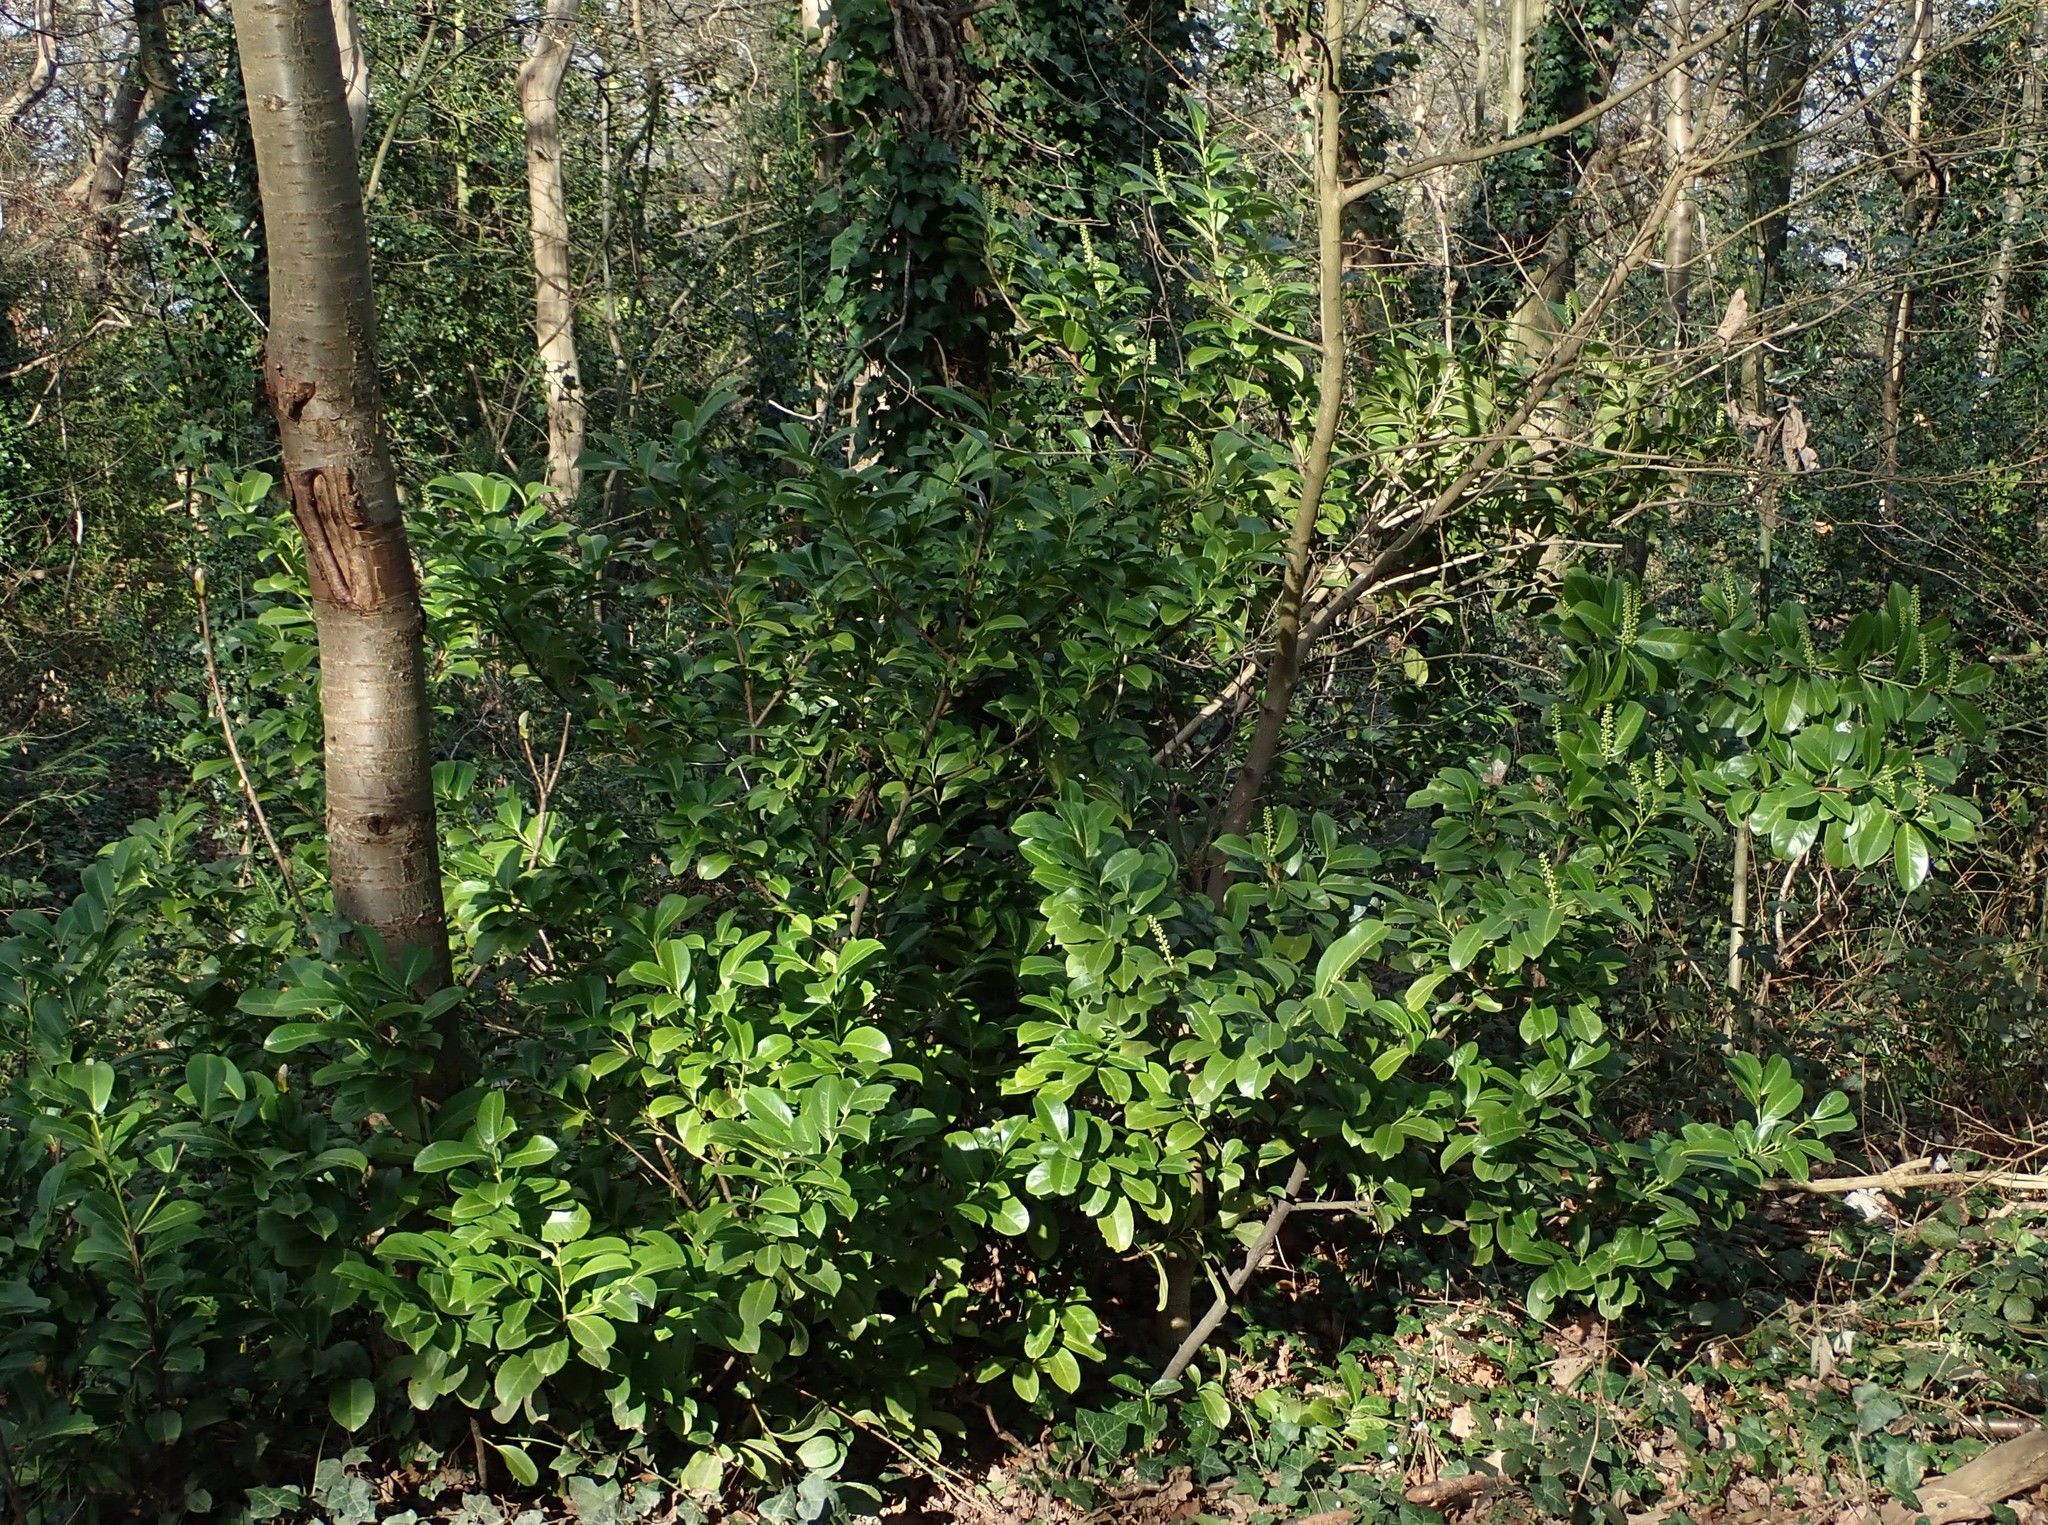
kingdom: Plantae
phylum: Tracheophyta
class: Magnoliopsida
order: Rosales
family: Rosaceae
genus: Prunus
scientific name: Prunus laurocerasus
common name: Cherry laurel
